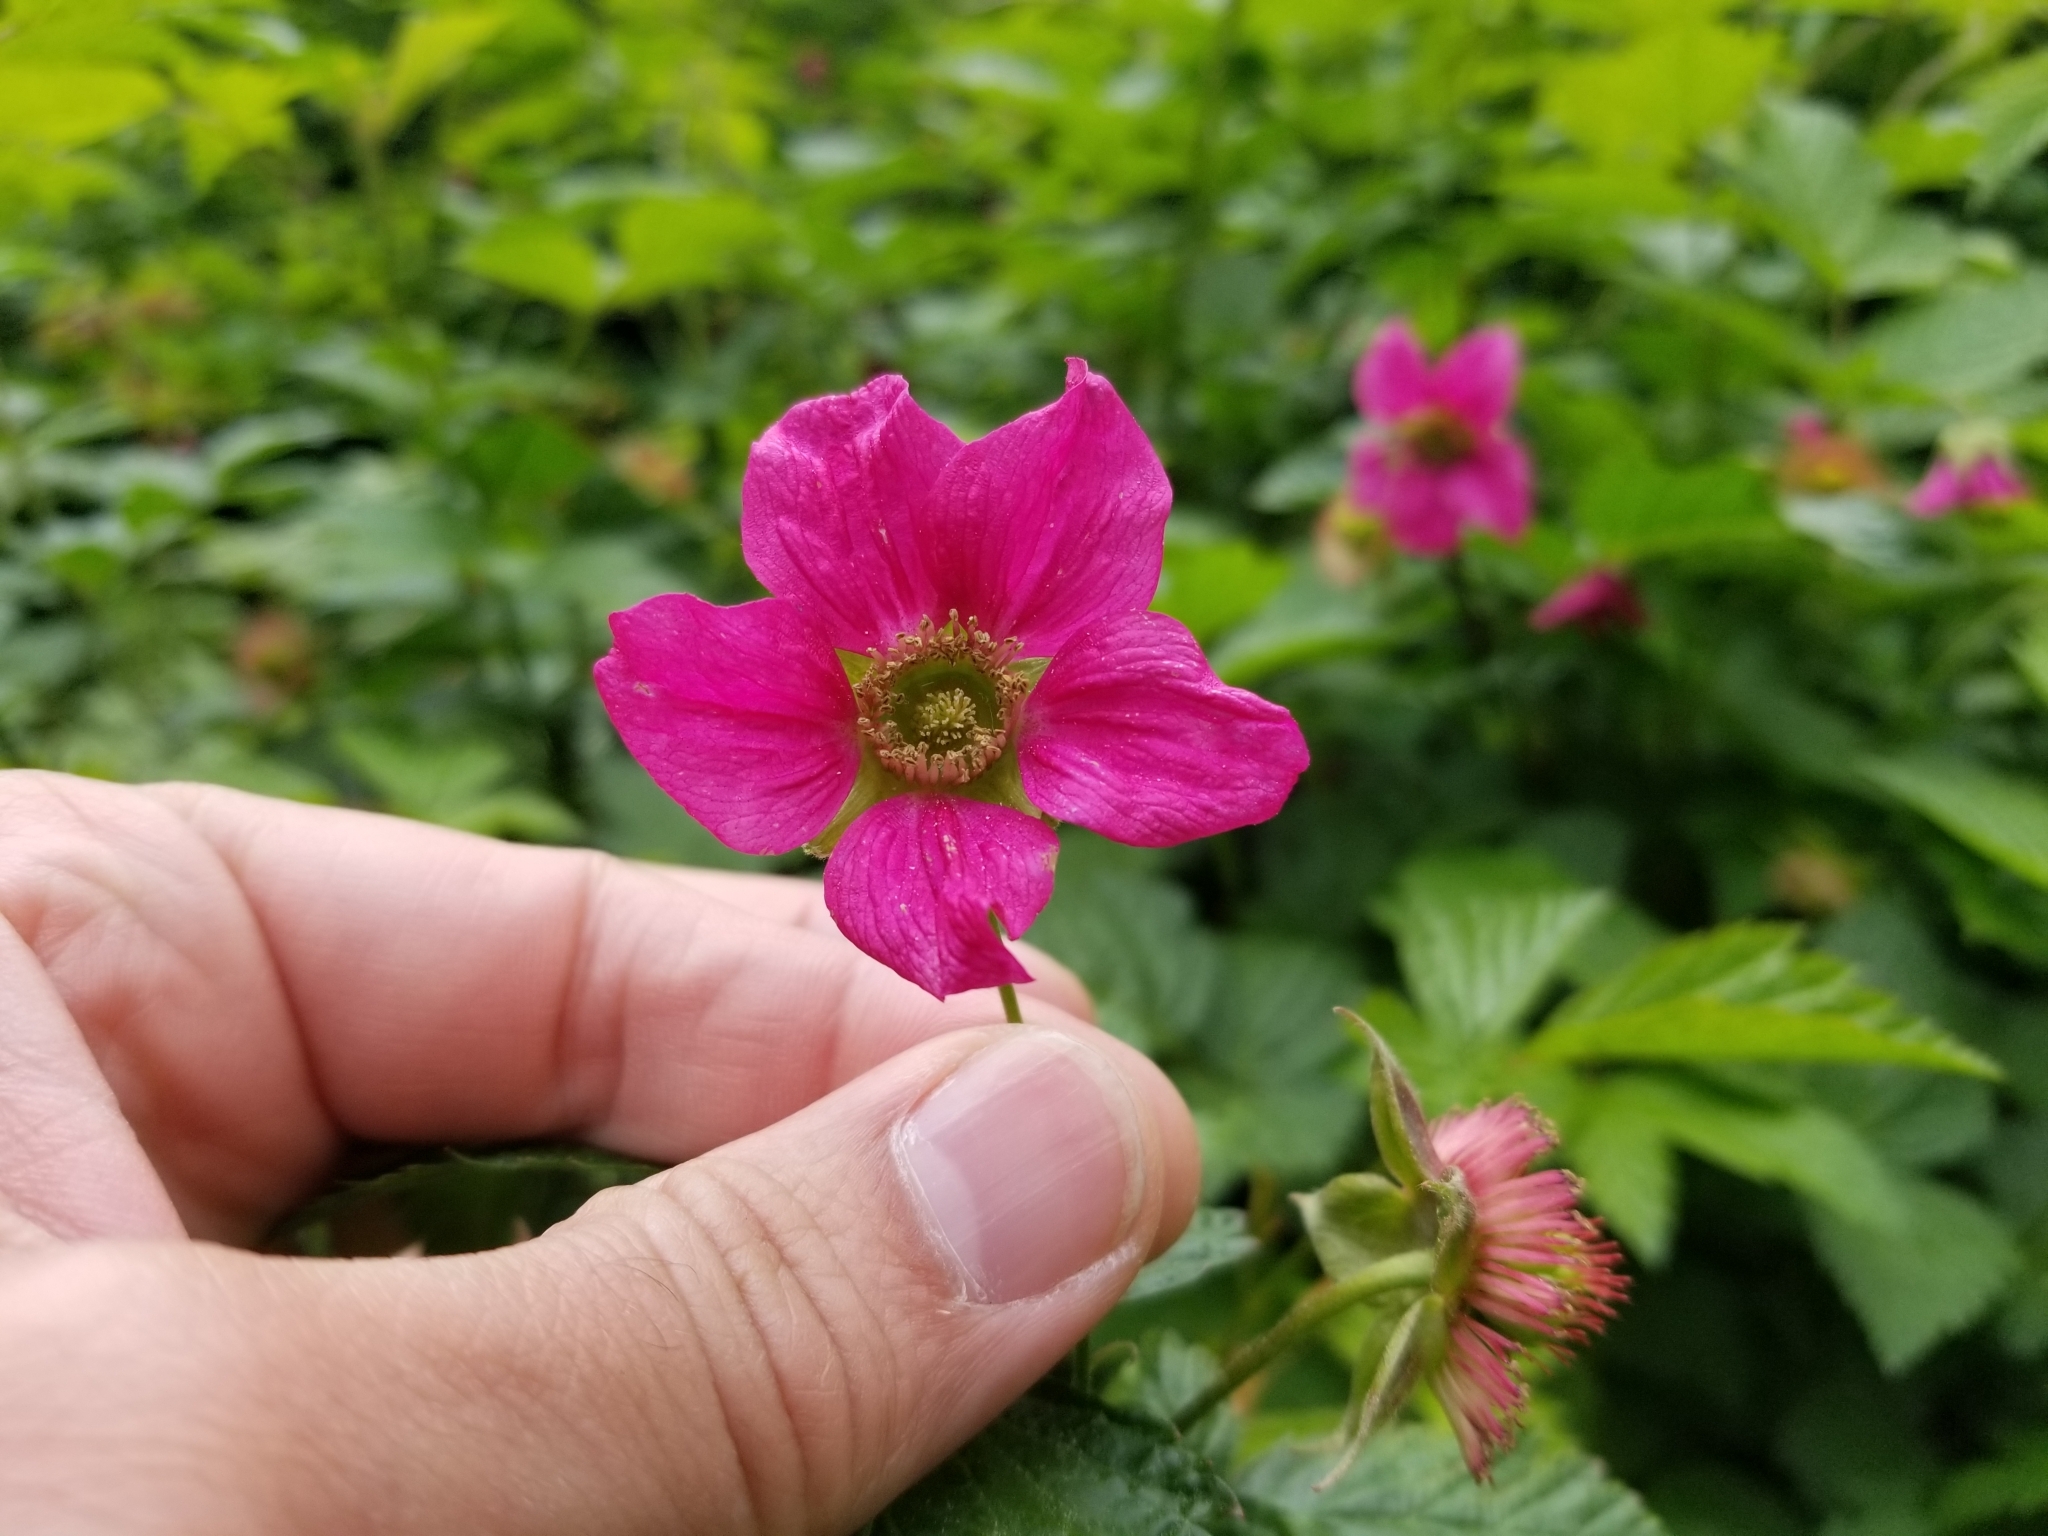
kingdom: Plantae
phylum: Tracheophyta
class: Magnoliopsida
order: Rosales
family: Rosaceae
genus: Rubus
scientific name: Rubus spectabilis
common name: Salmonberry
